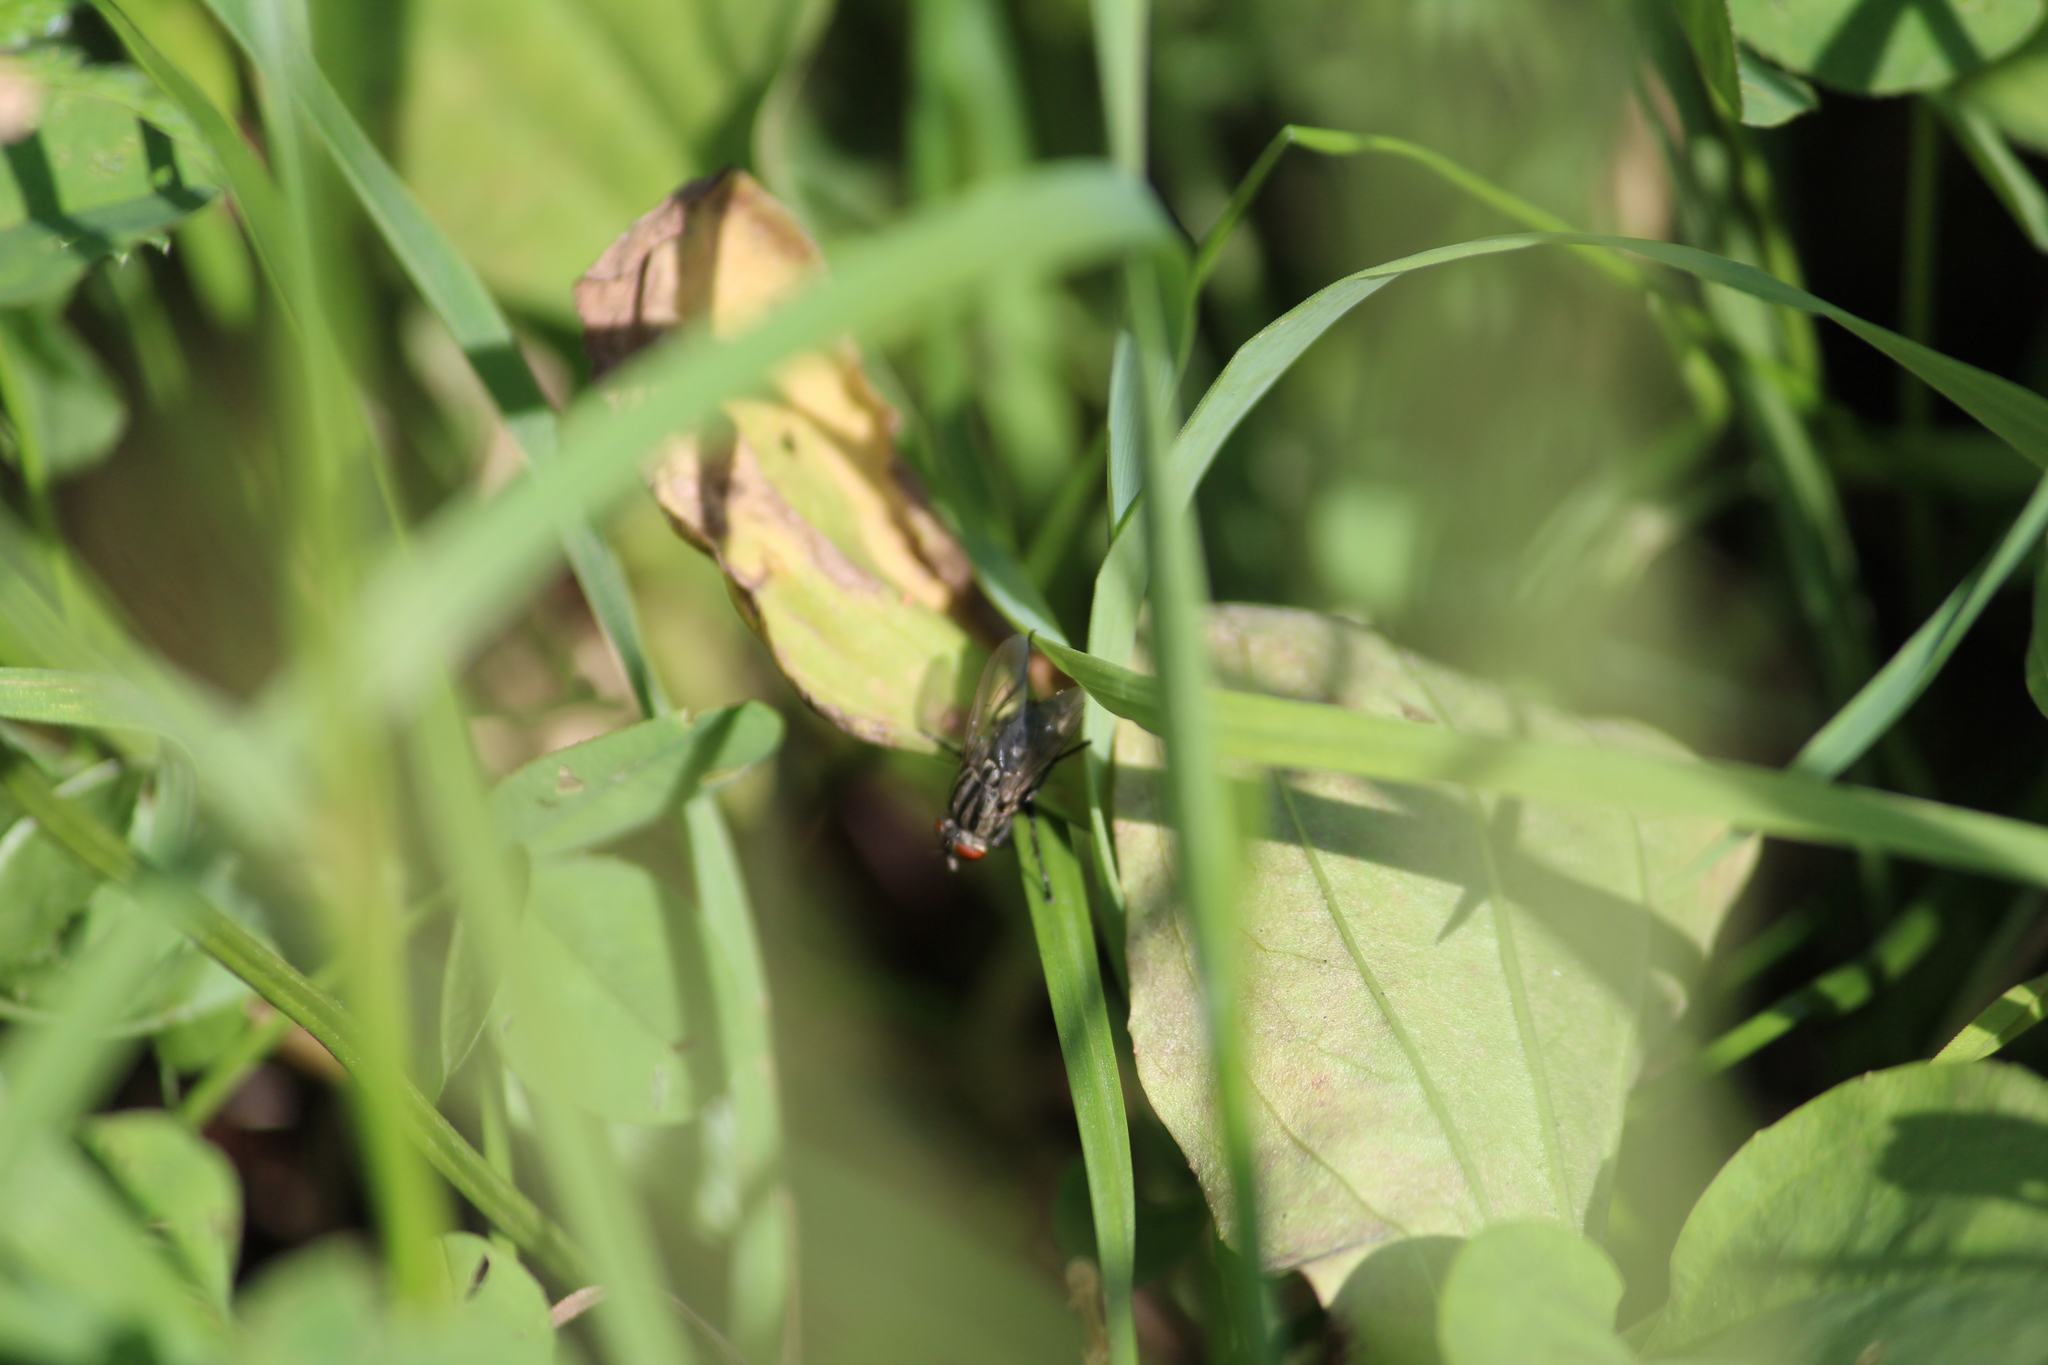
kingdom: Animalia
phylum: Arthropoda
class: Insecta
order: Diptera
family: Sarcophagidae
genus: Sarcophaga
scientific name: Sarcophaga
